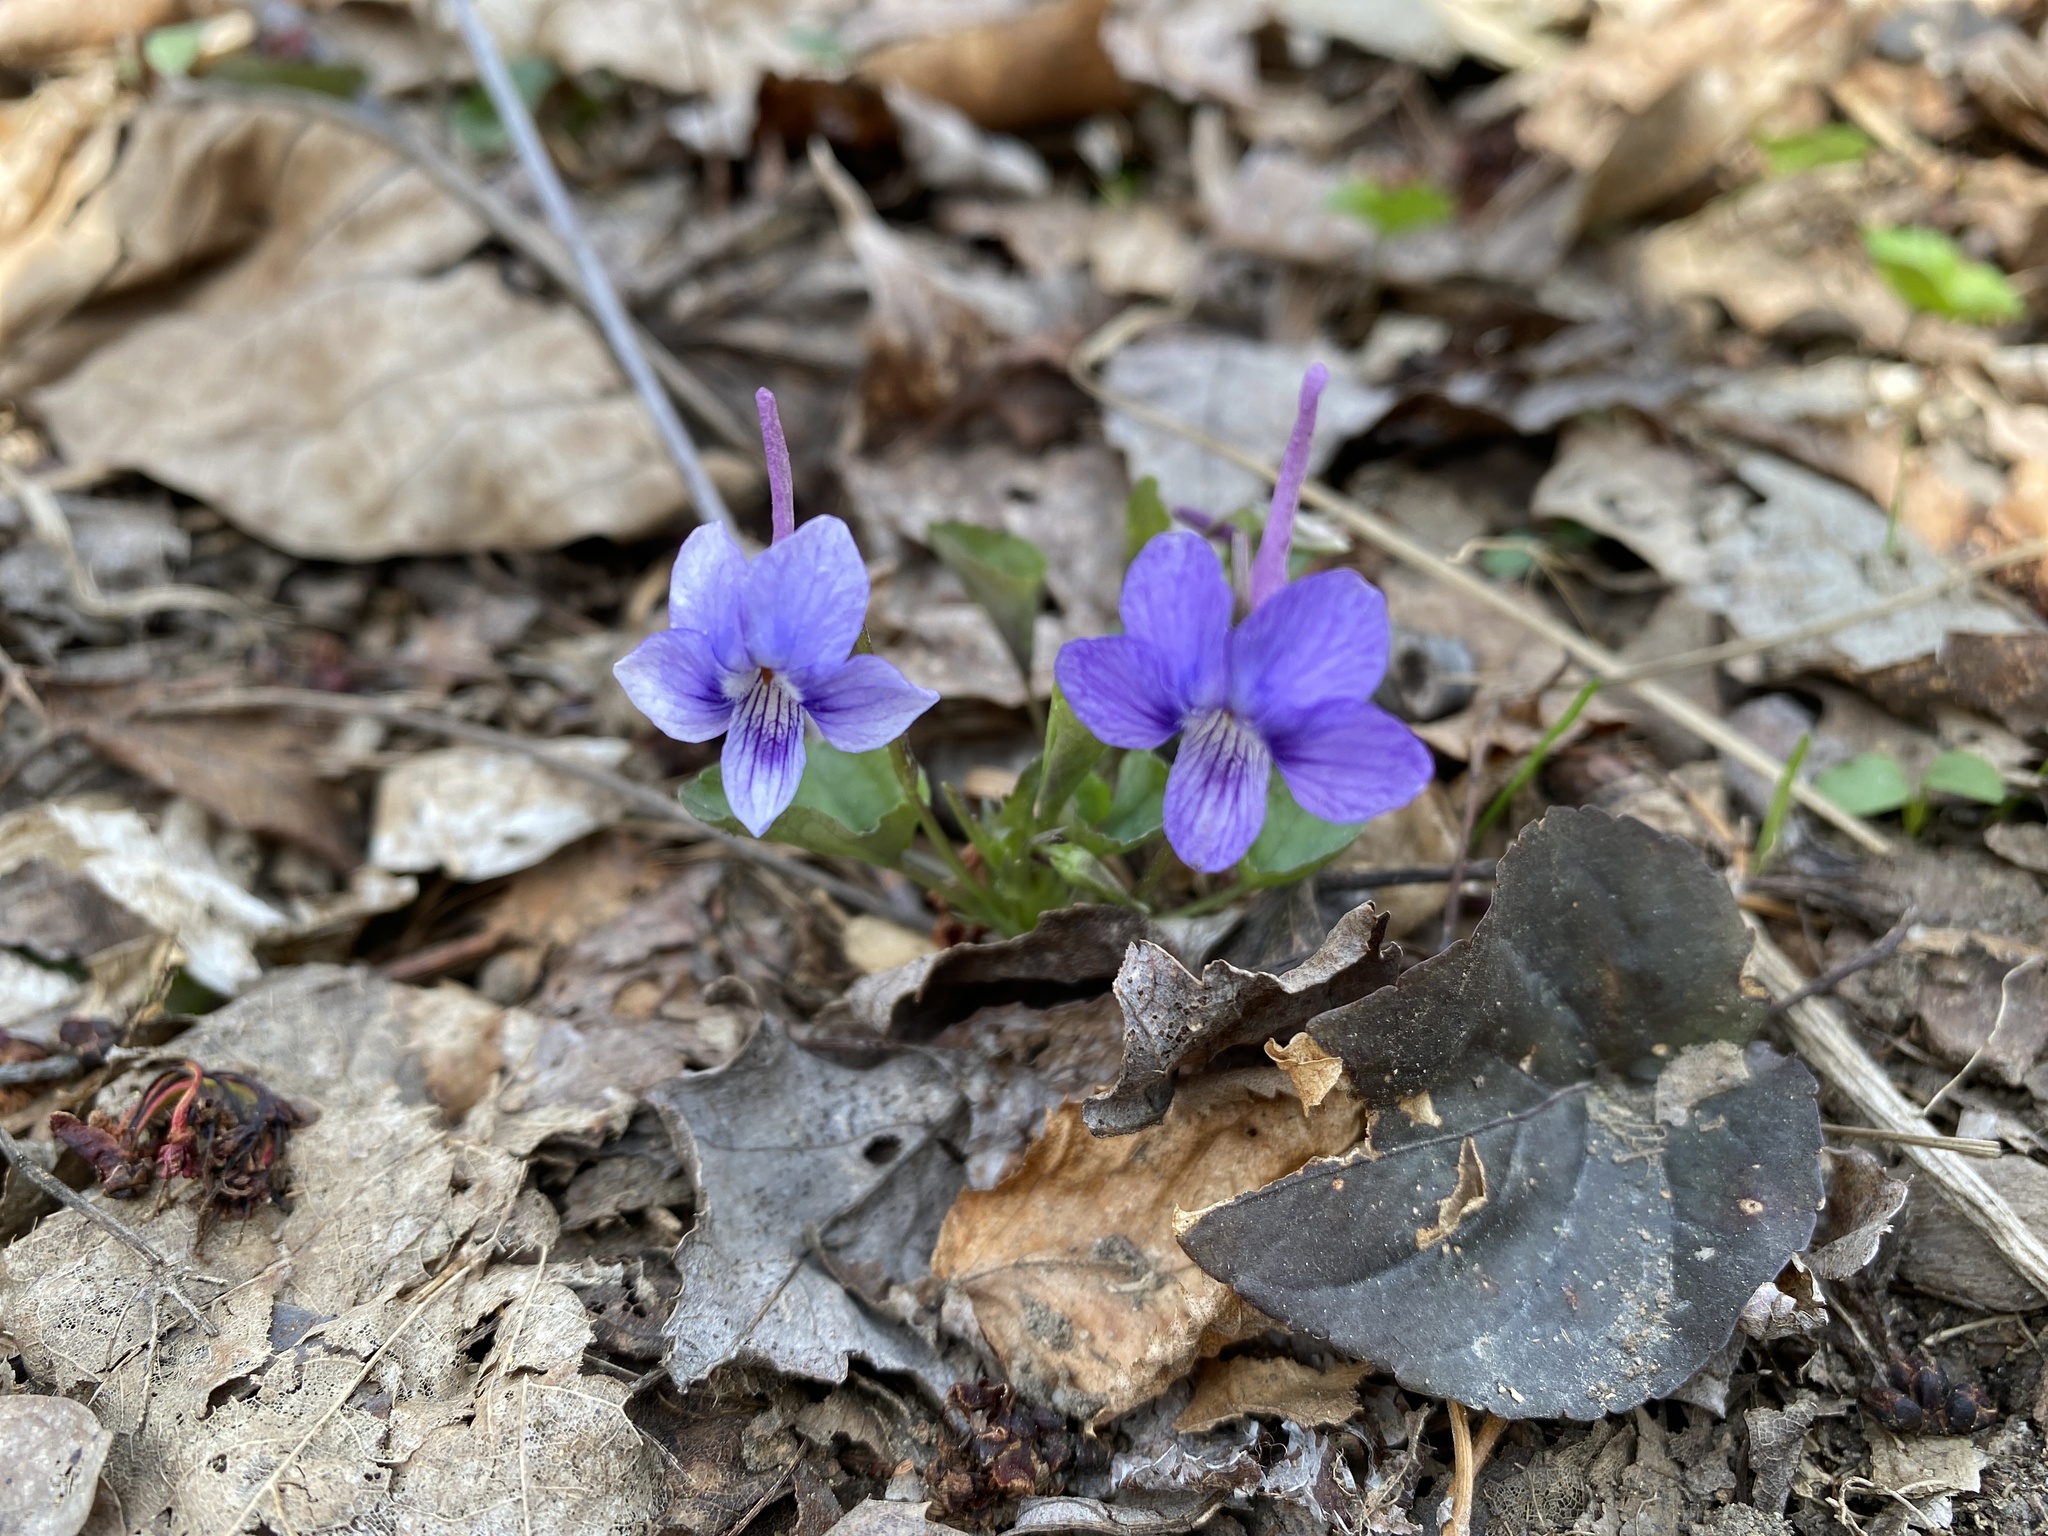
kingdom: Plantae
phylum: Tracheophyta
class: Magnoliopsida
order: Malpighiales
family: Violaceae
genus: Viola
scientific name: Viola rostrata
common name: Long-spur violet
